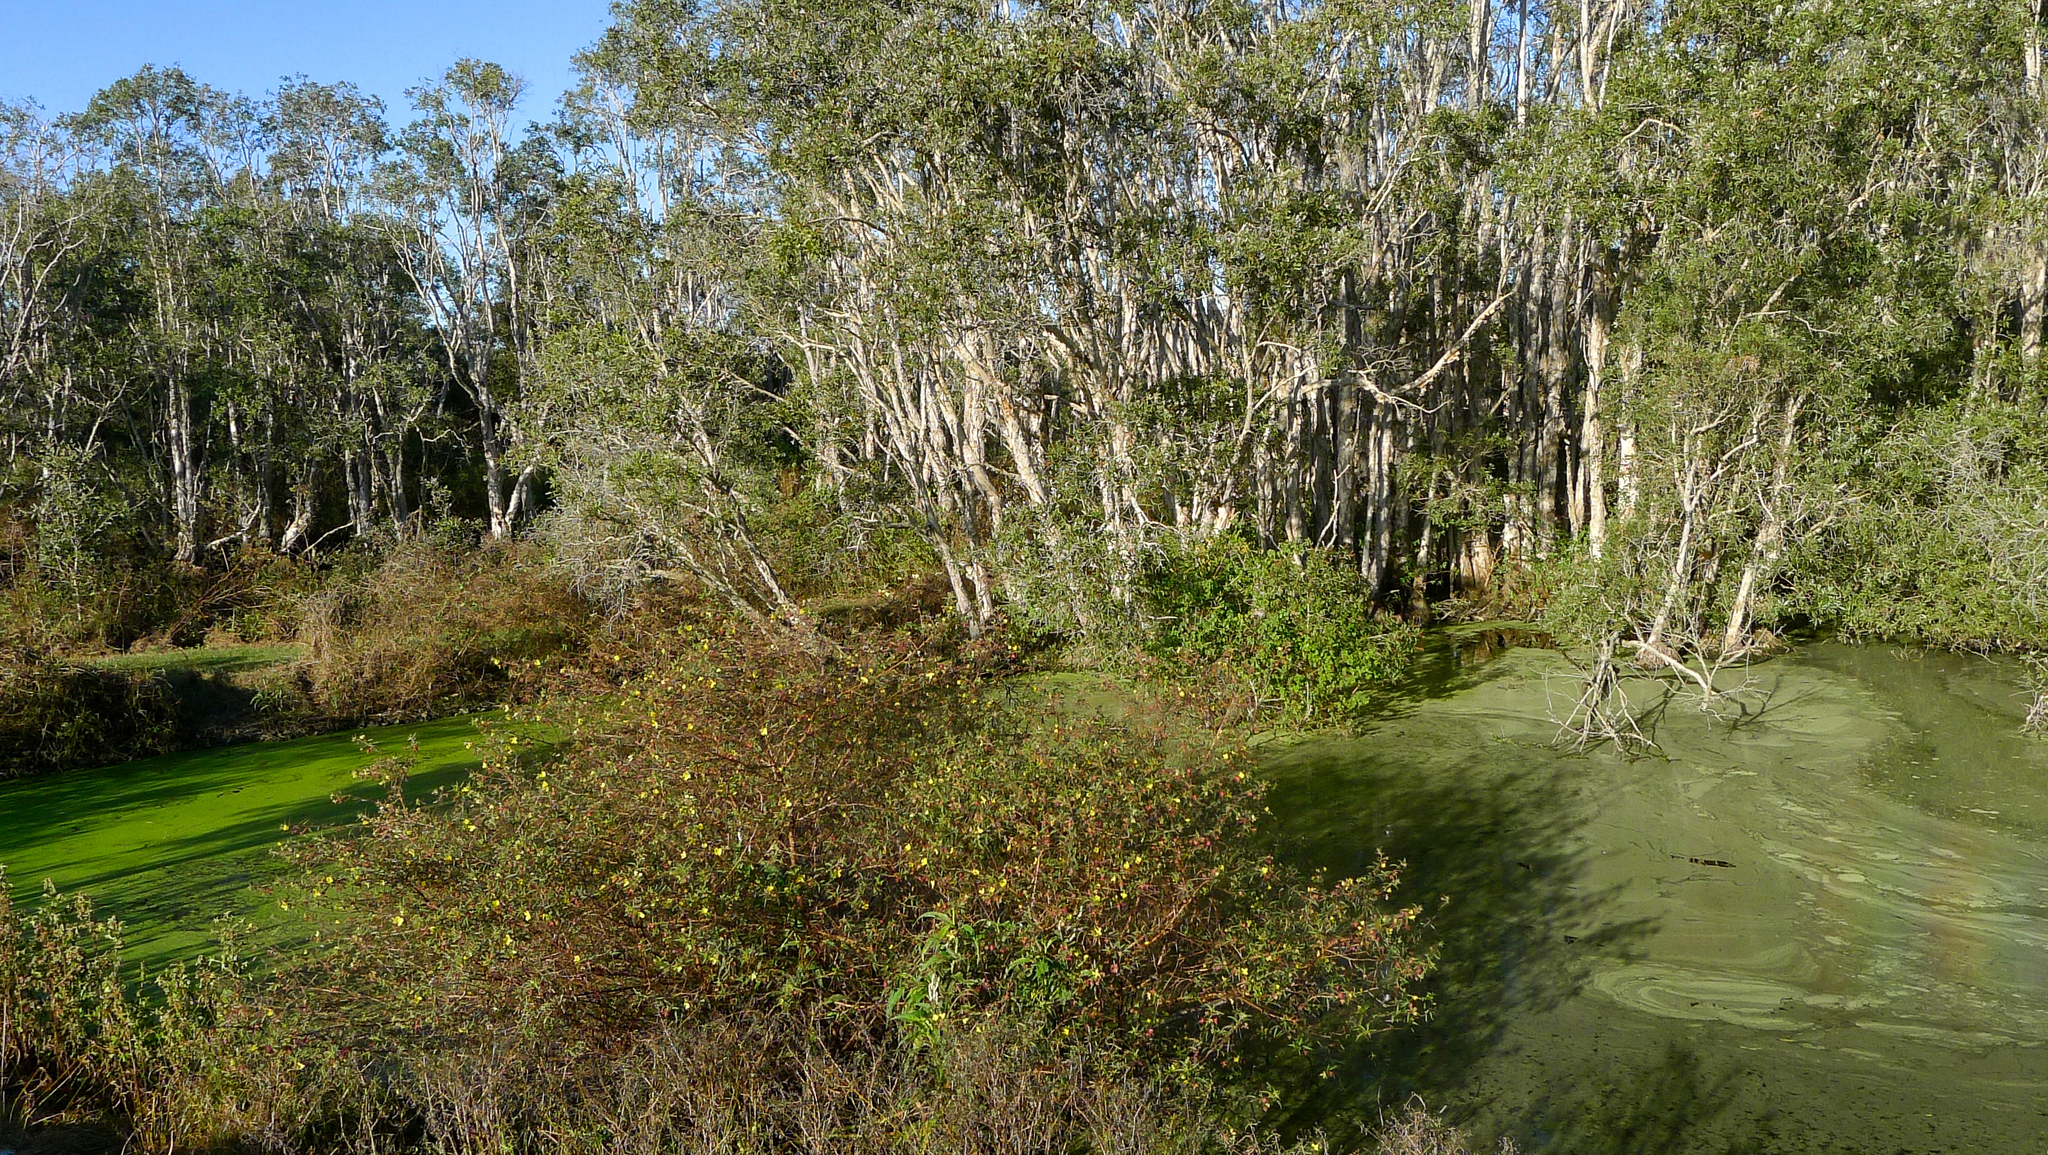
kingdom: Plantae
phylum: Tracheophyta
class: Magnoliopsida
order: Myrtales
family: Onagraceae
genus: Ludwigia
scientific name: Ludwigia octovalvis
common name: Water-primrose
